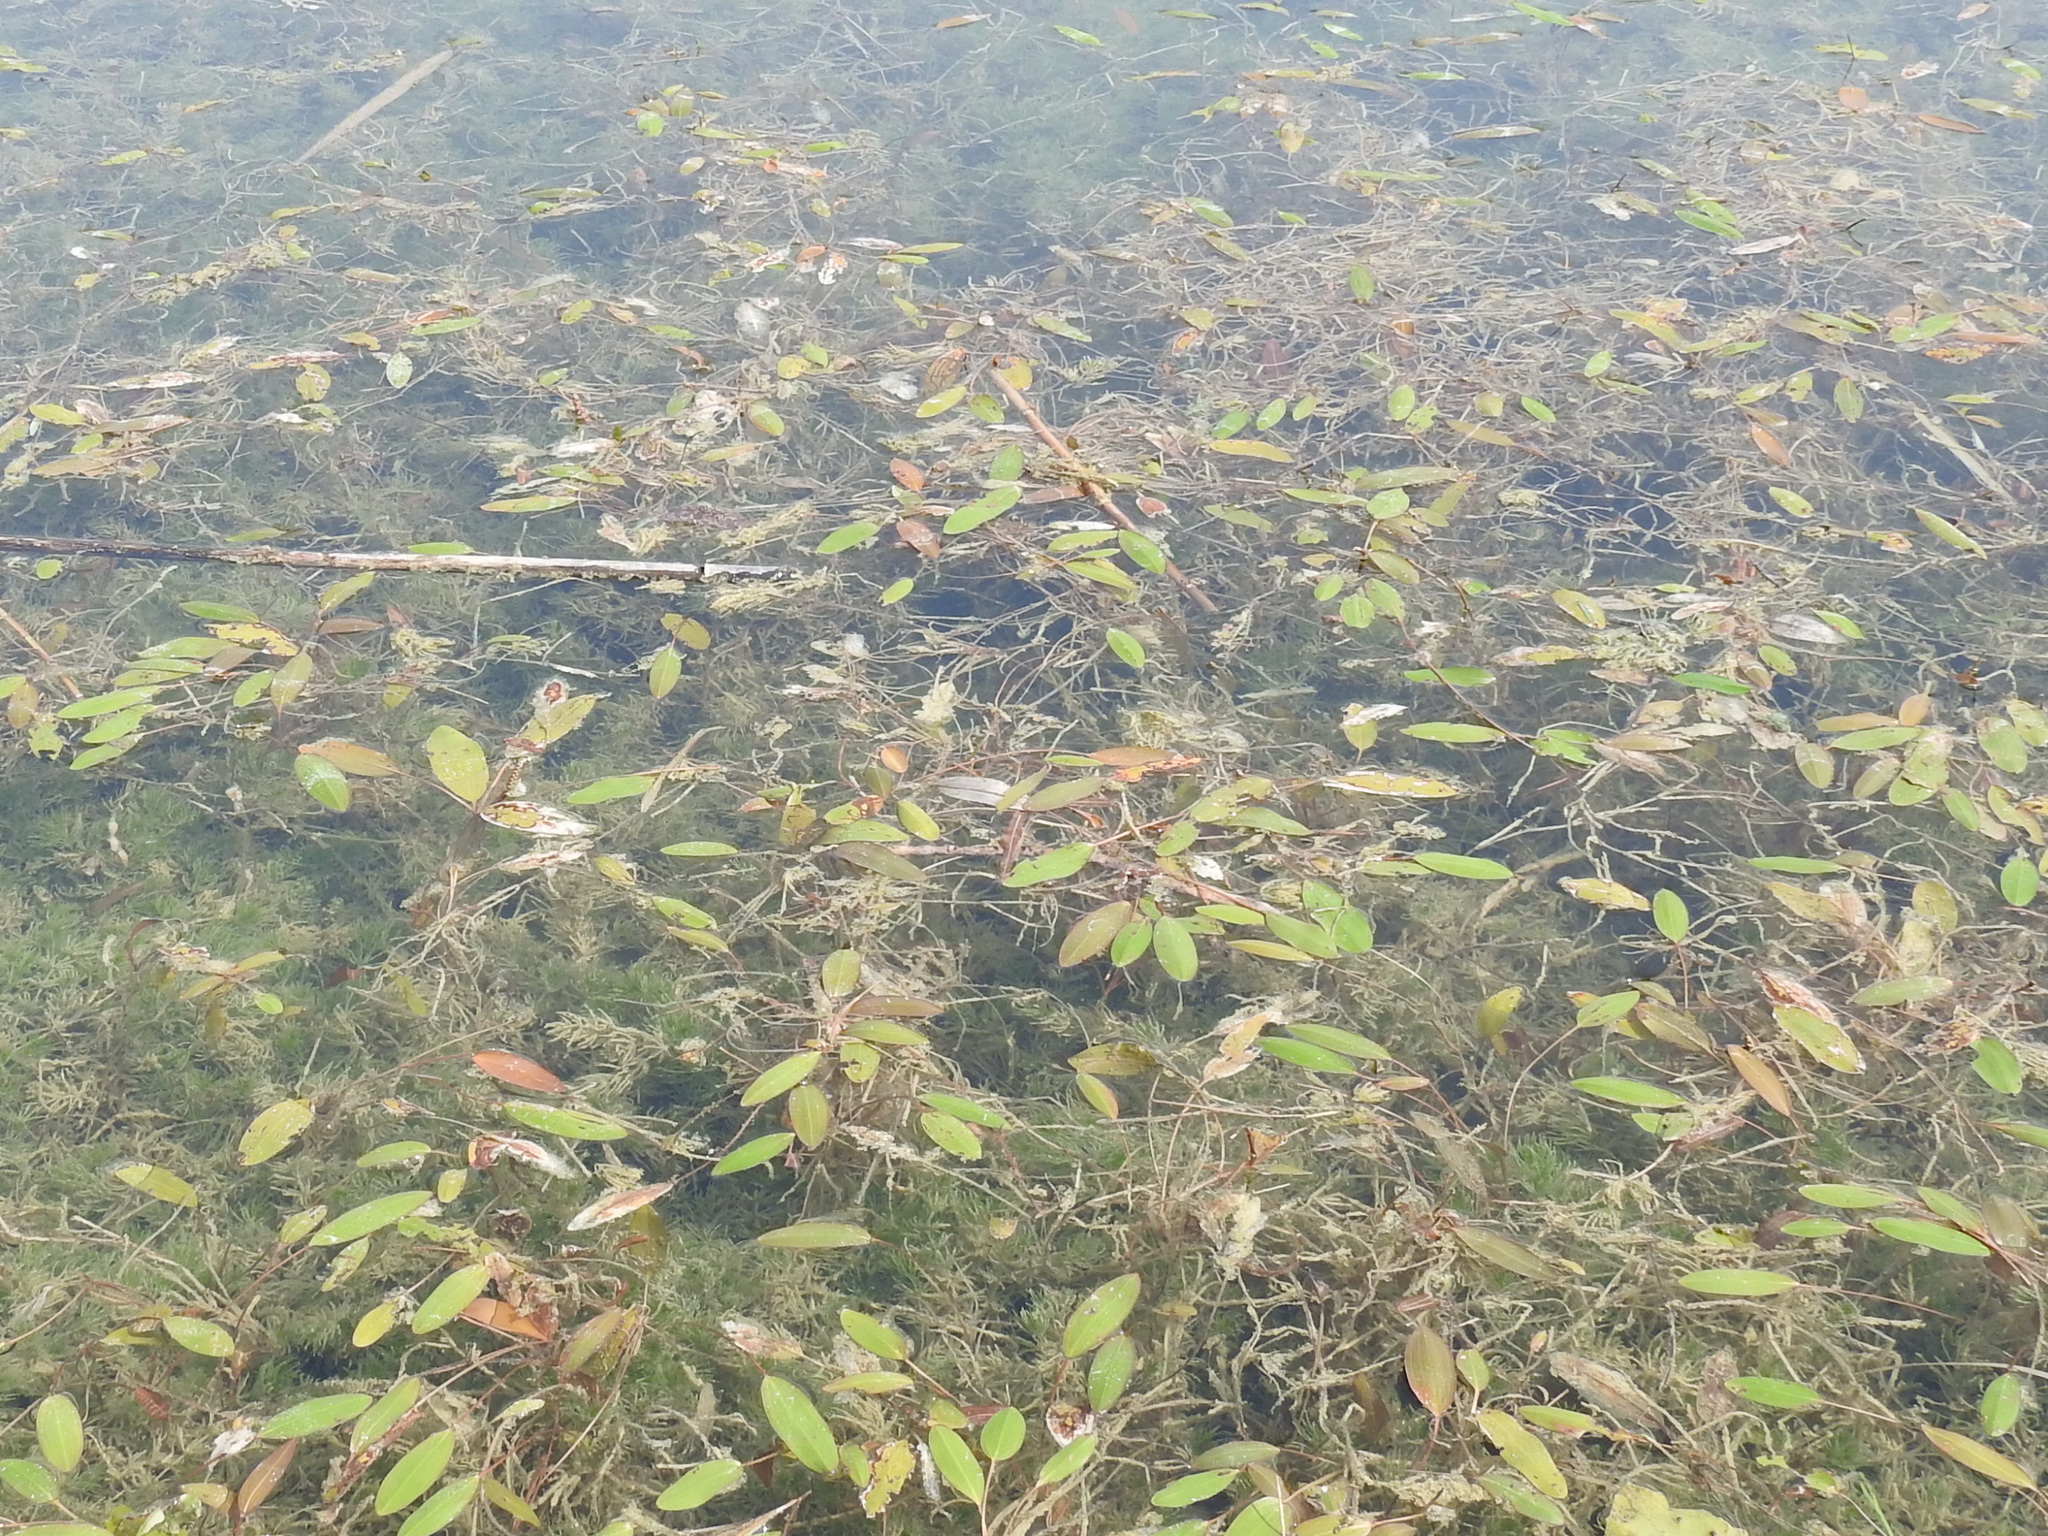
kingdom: Plantae
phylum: Tracheophyta
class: Liliopsida
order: Alismatales
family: Potamogetonaceae
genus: Potamogeton
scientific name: Potamogeton nodosus
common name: Loddon pondweed
